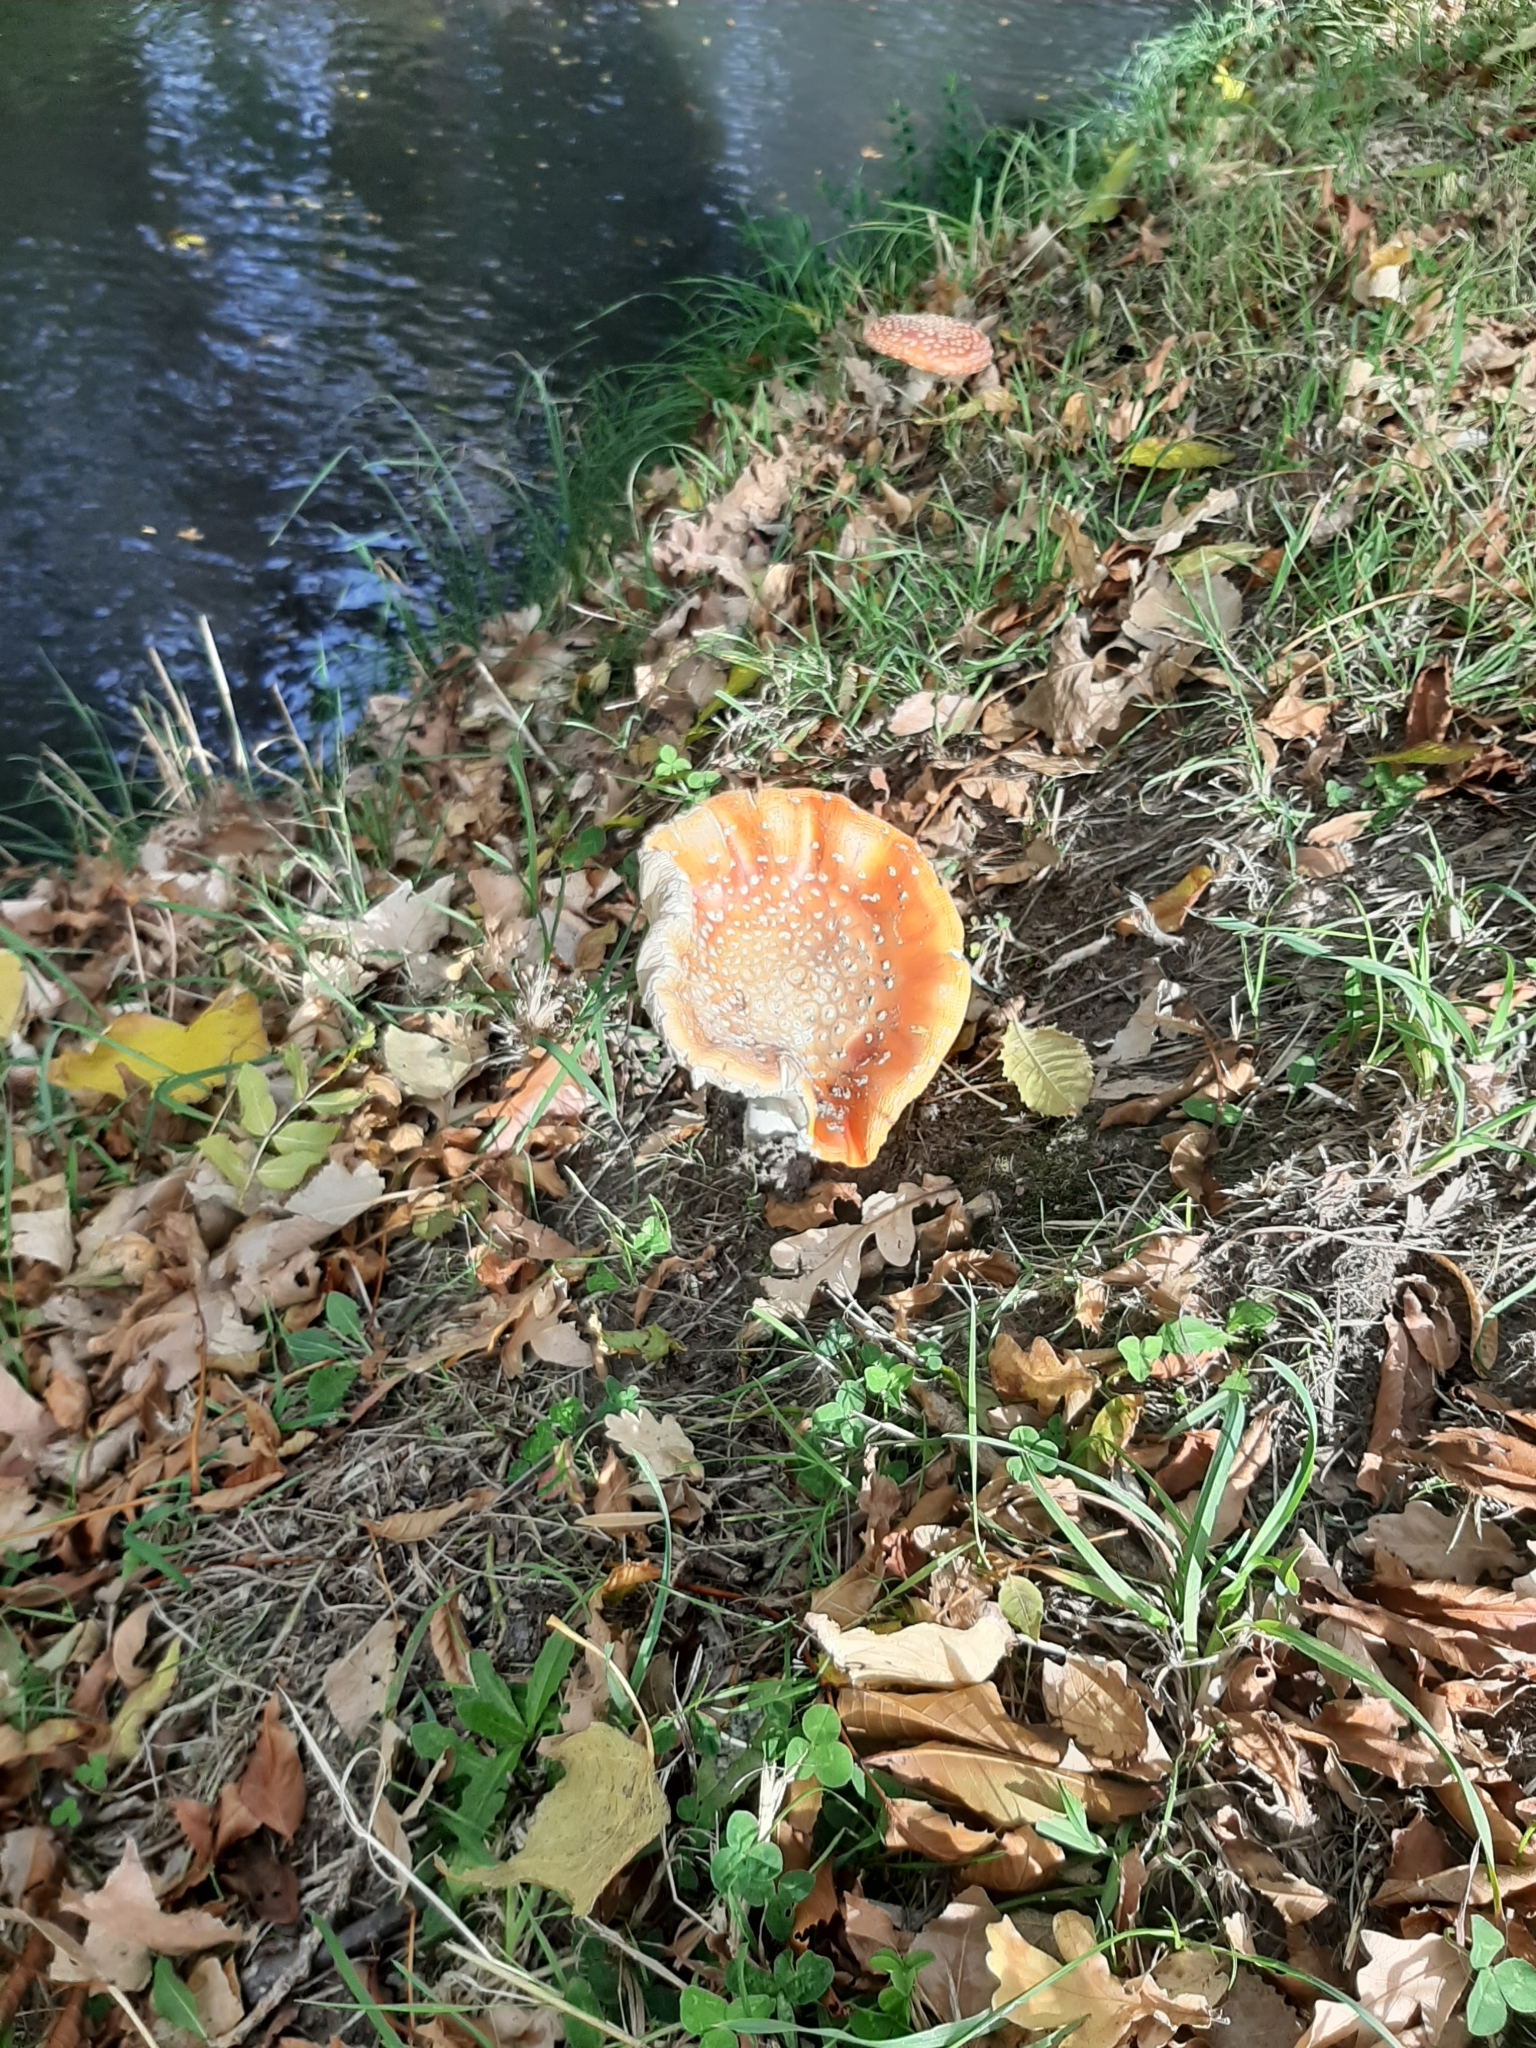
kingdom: Fungi
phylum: Basidiomycota
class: Agaricomycetes
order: Agaricales
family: Amanitaceae
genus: Amanita
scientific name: Amanita muscaria
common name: Fly agaric
